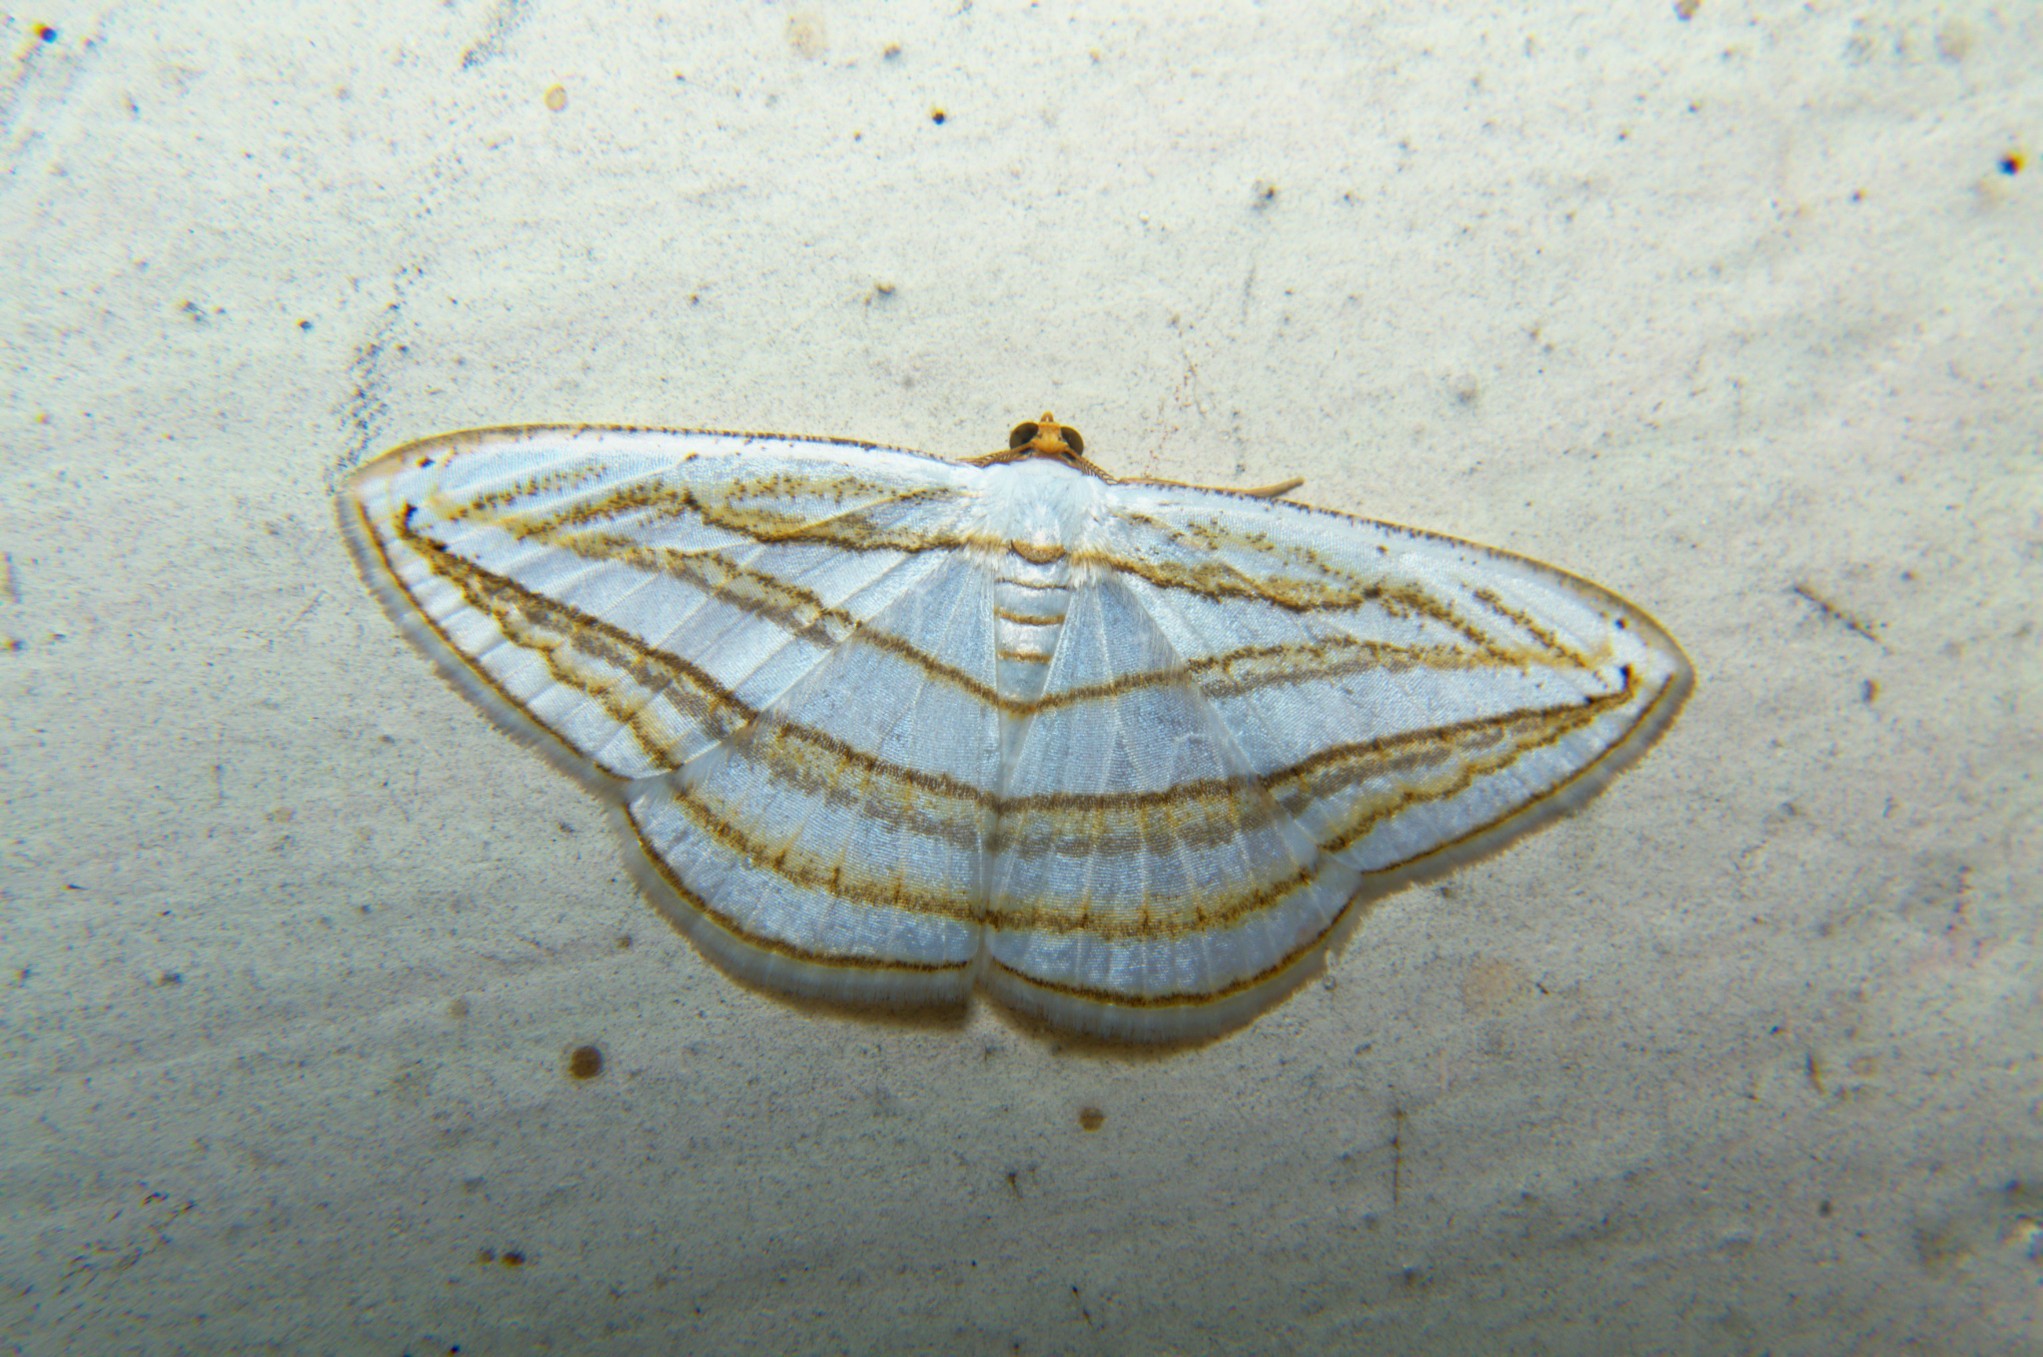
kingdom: Animalia
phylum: Arthropoda
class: Insecta
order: Lepidoptera
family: Geometridae
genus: Orthocabera
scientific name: Orthocabera sericea
